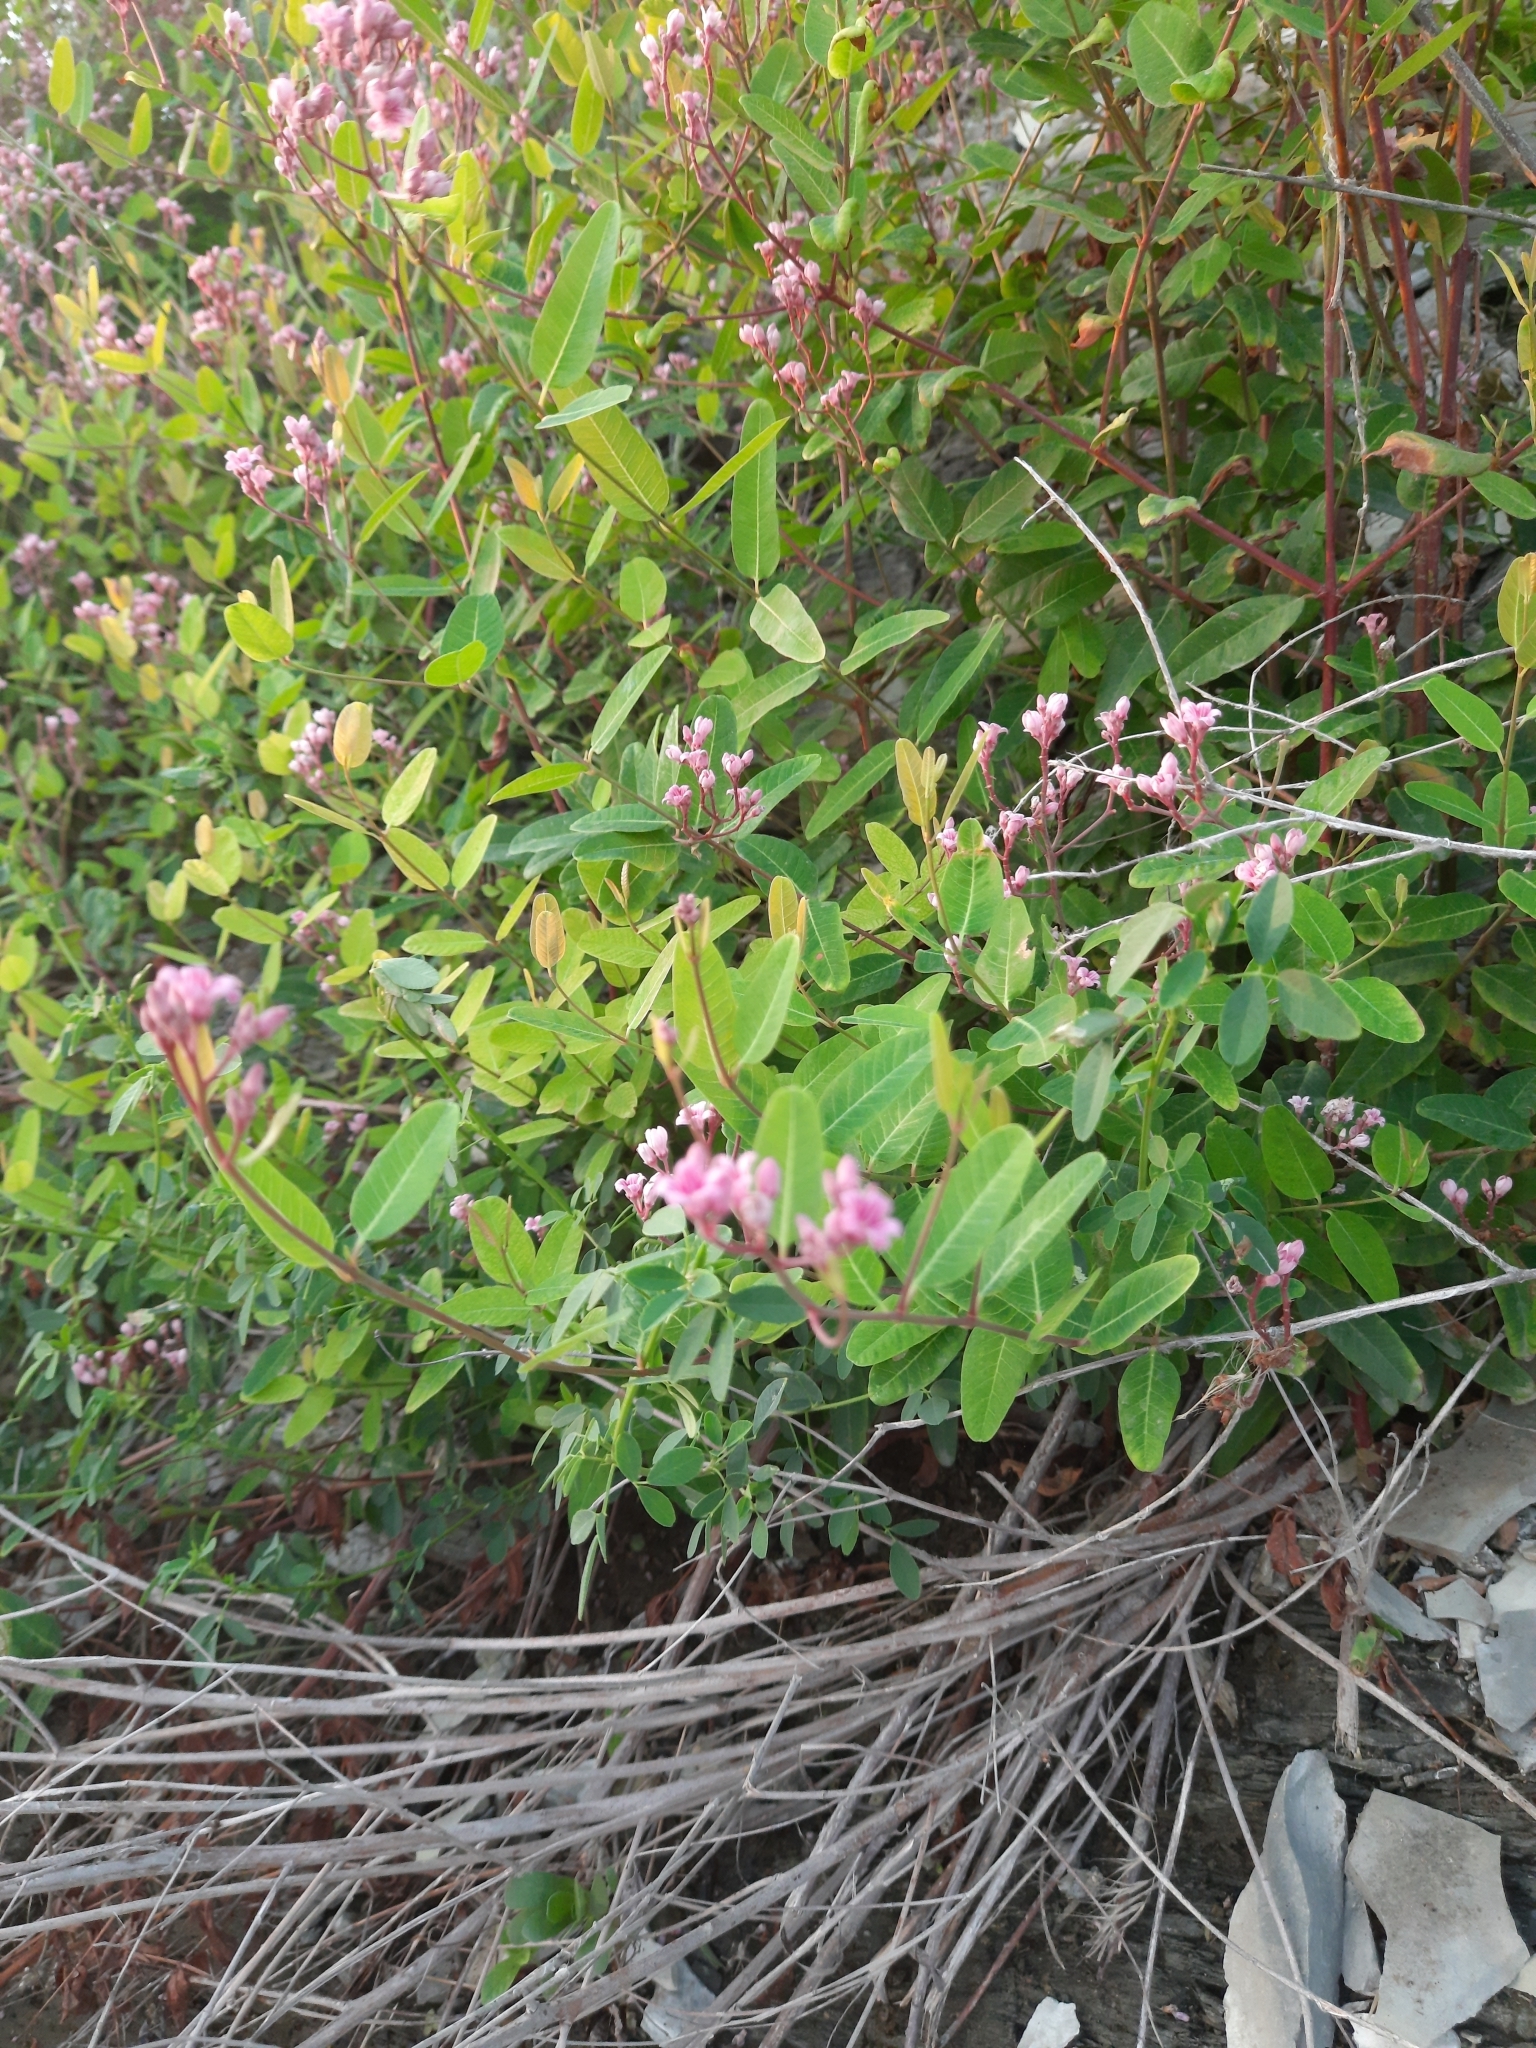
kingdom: Plantae
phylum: Tracheophyta
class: Magnoliopsida
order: Gentianales
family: Apocynaceae
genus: Poacynum
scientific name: Poacynum venetum
